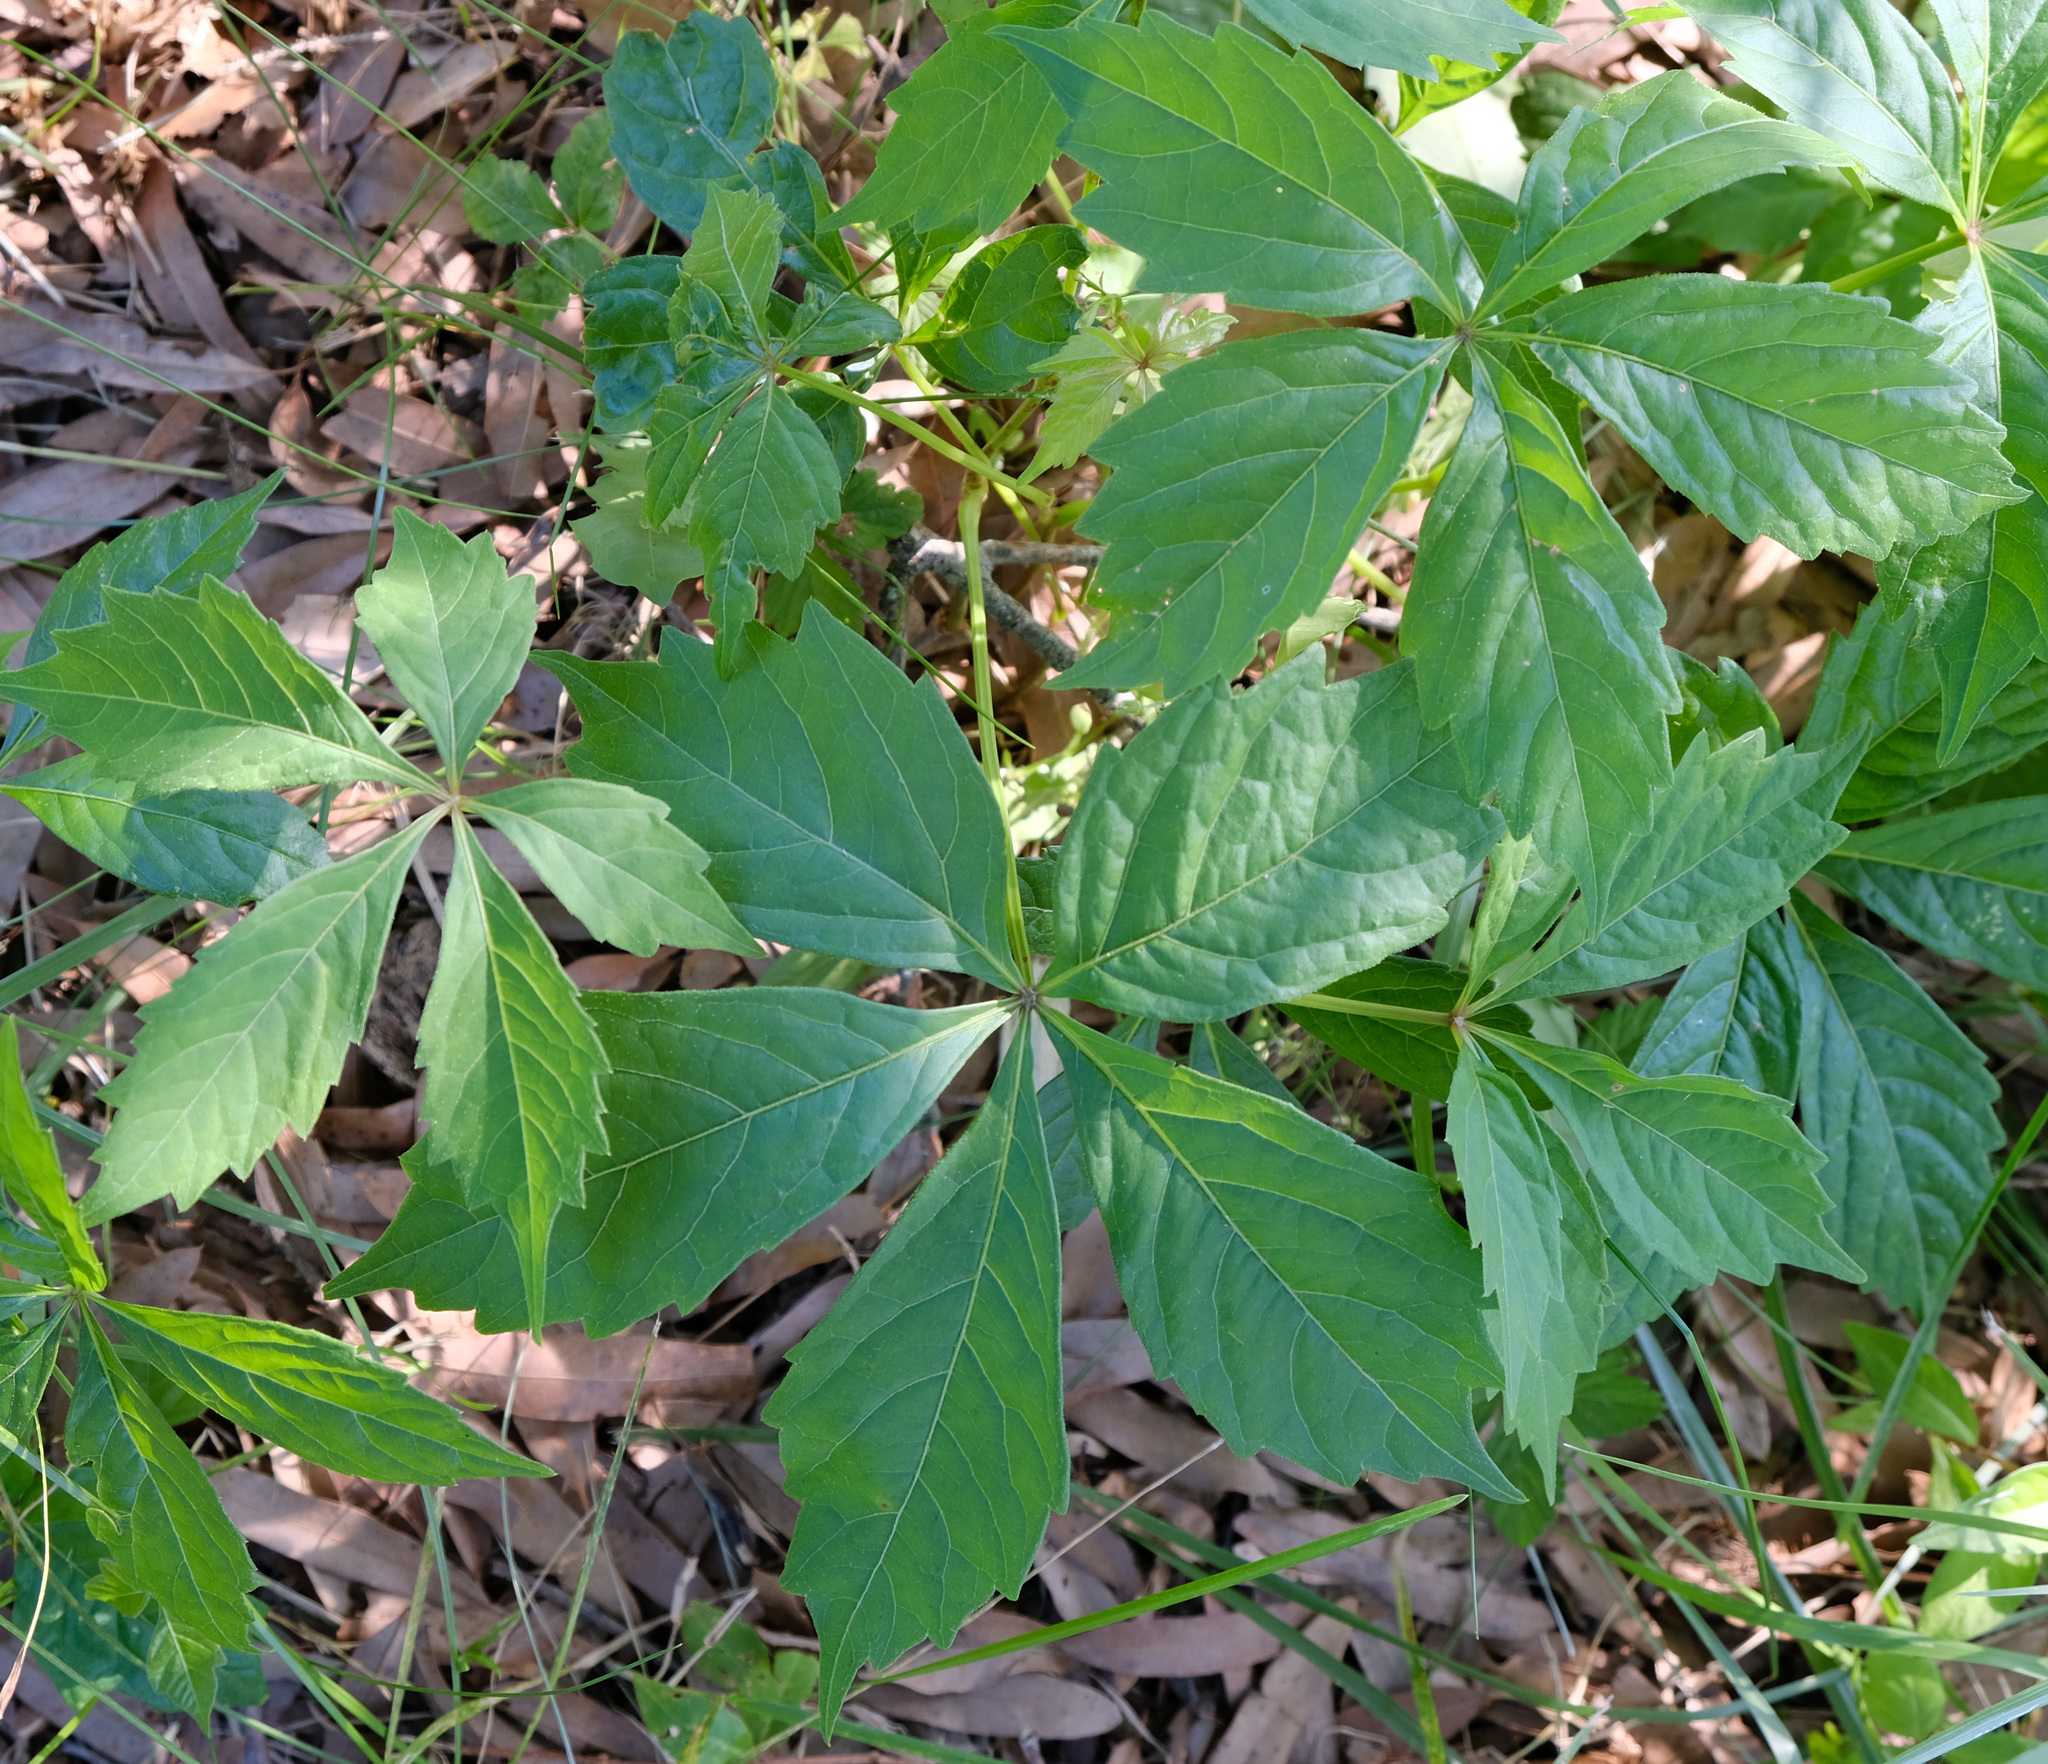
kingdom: Plantae
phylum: Tracheophyta
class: Magnoliopsida
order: Vitales
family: Vitaceae
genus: Parthenocissus
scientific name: Parthenocissus quinquefolia
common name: Virginia-creeper
